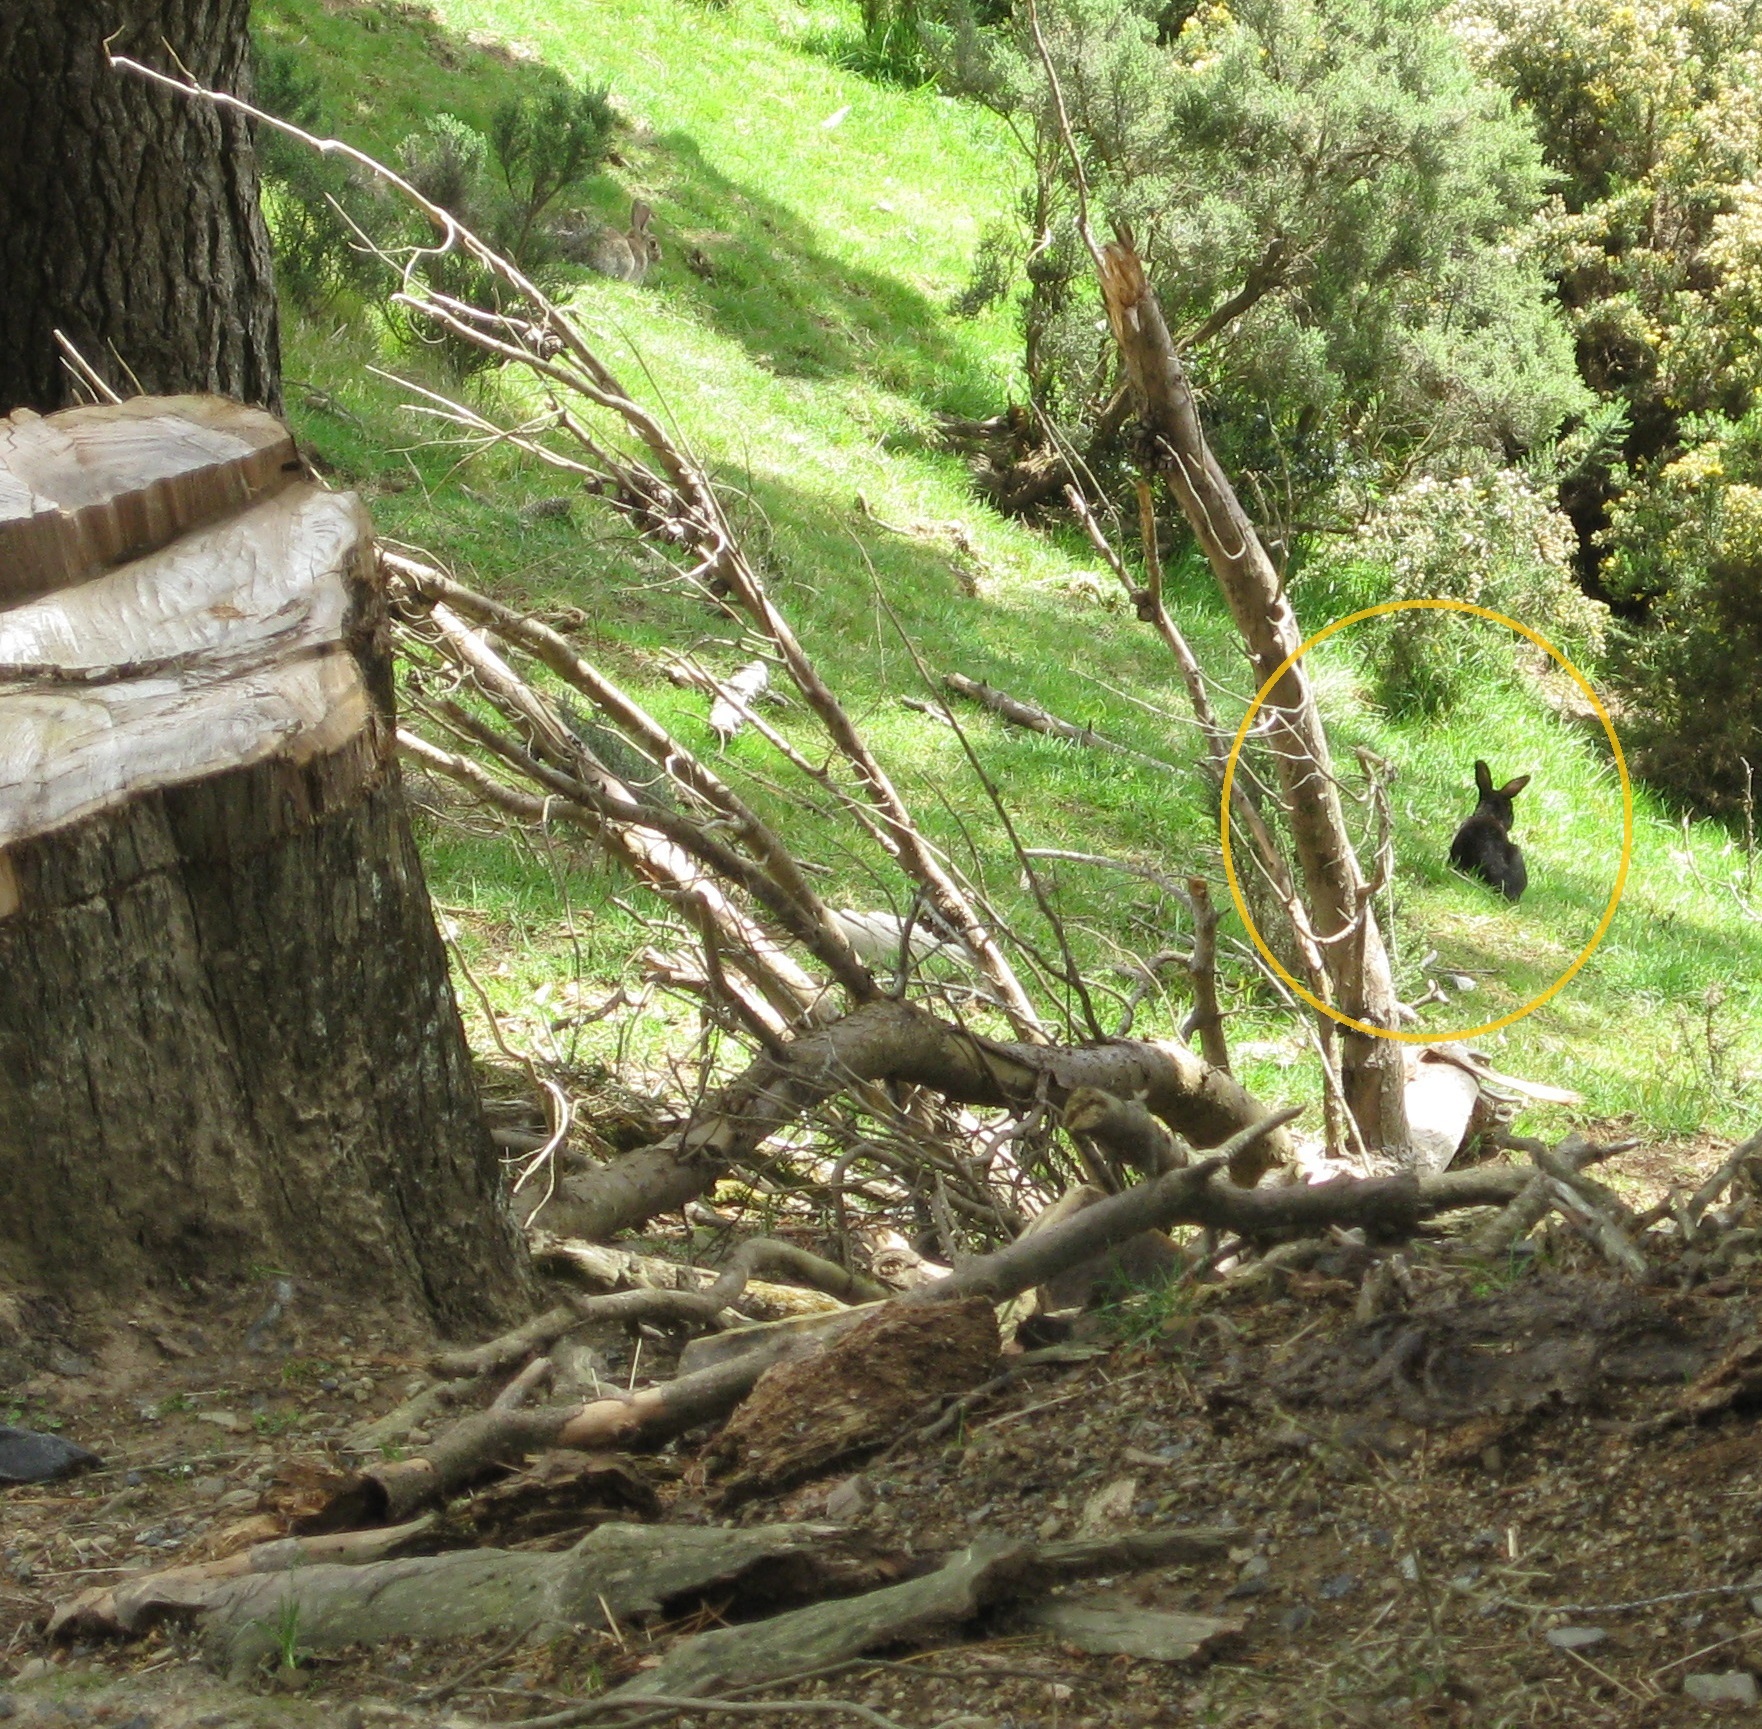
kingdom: Animalia
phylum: Chordata
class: Mammalia
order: Lagomorpha
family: Leporidae
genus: Oryctolagus
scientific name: Oryctolagus cuniculus
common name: European rabbit
